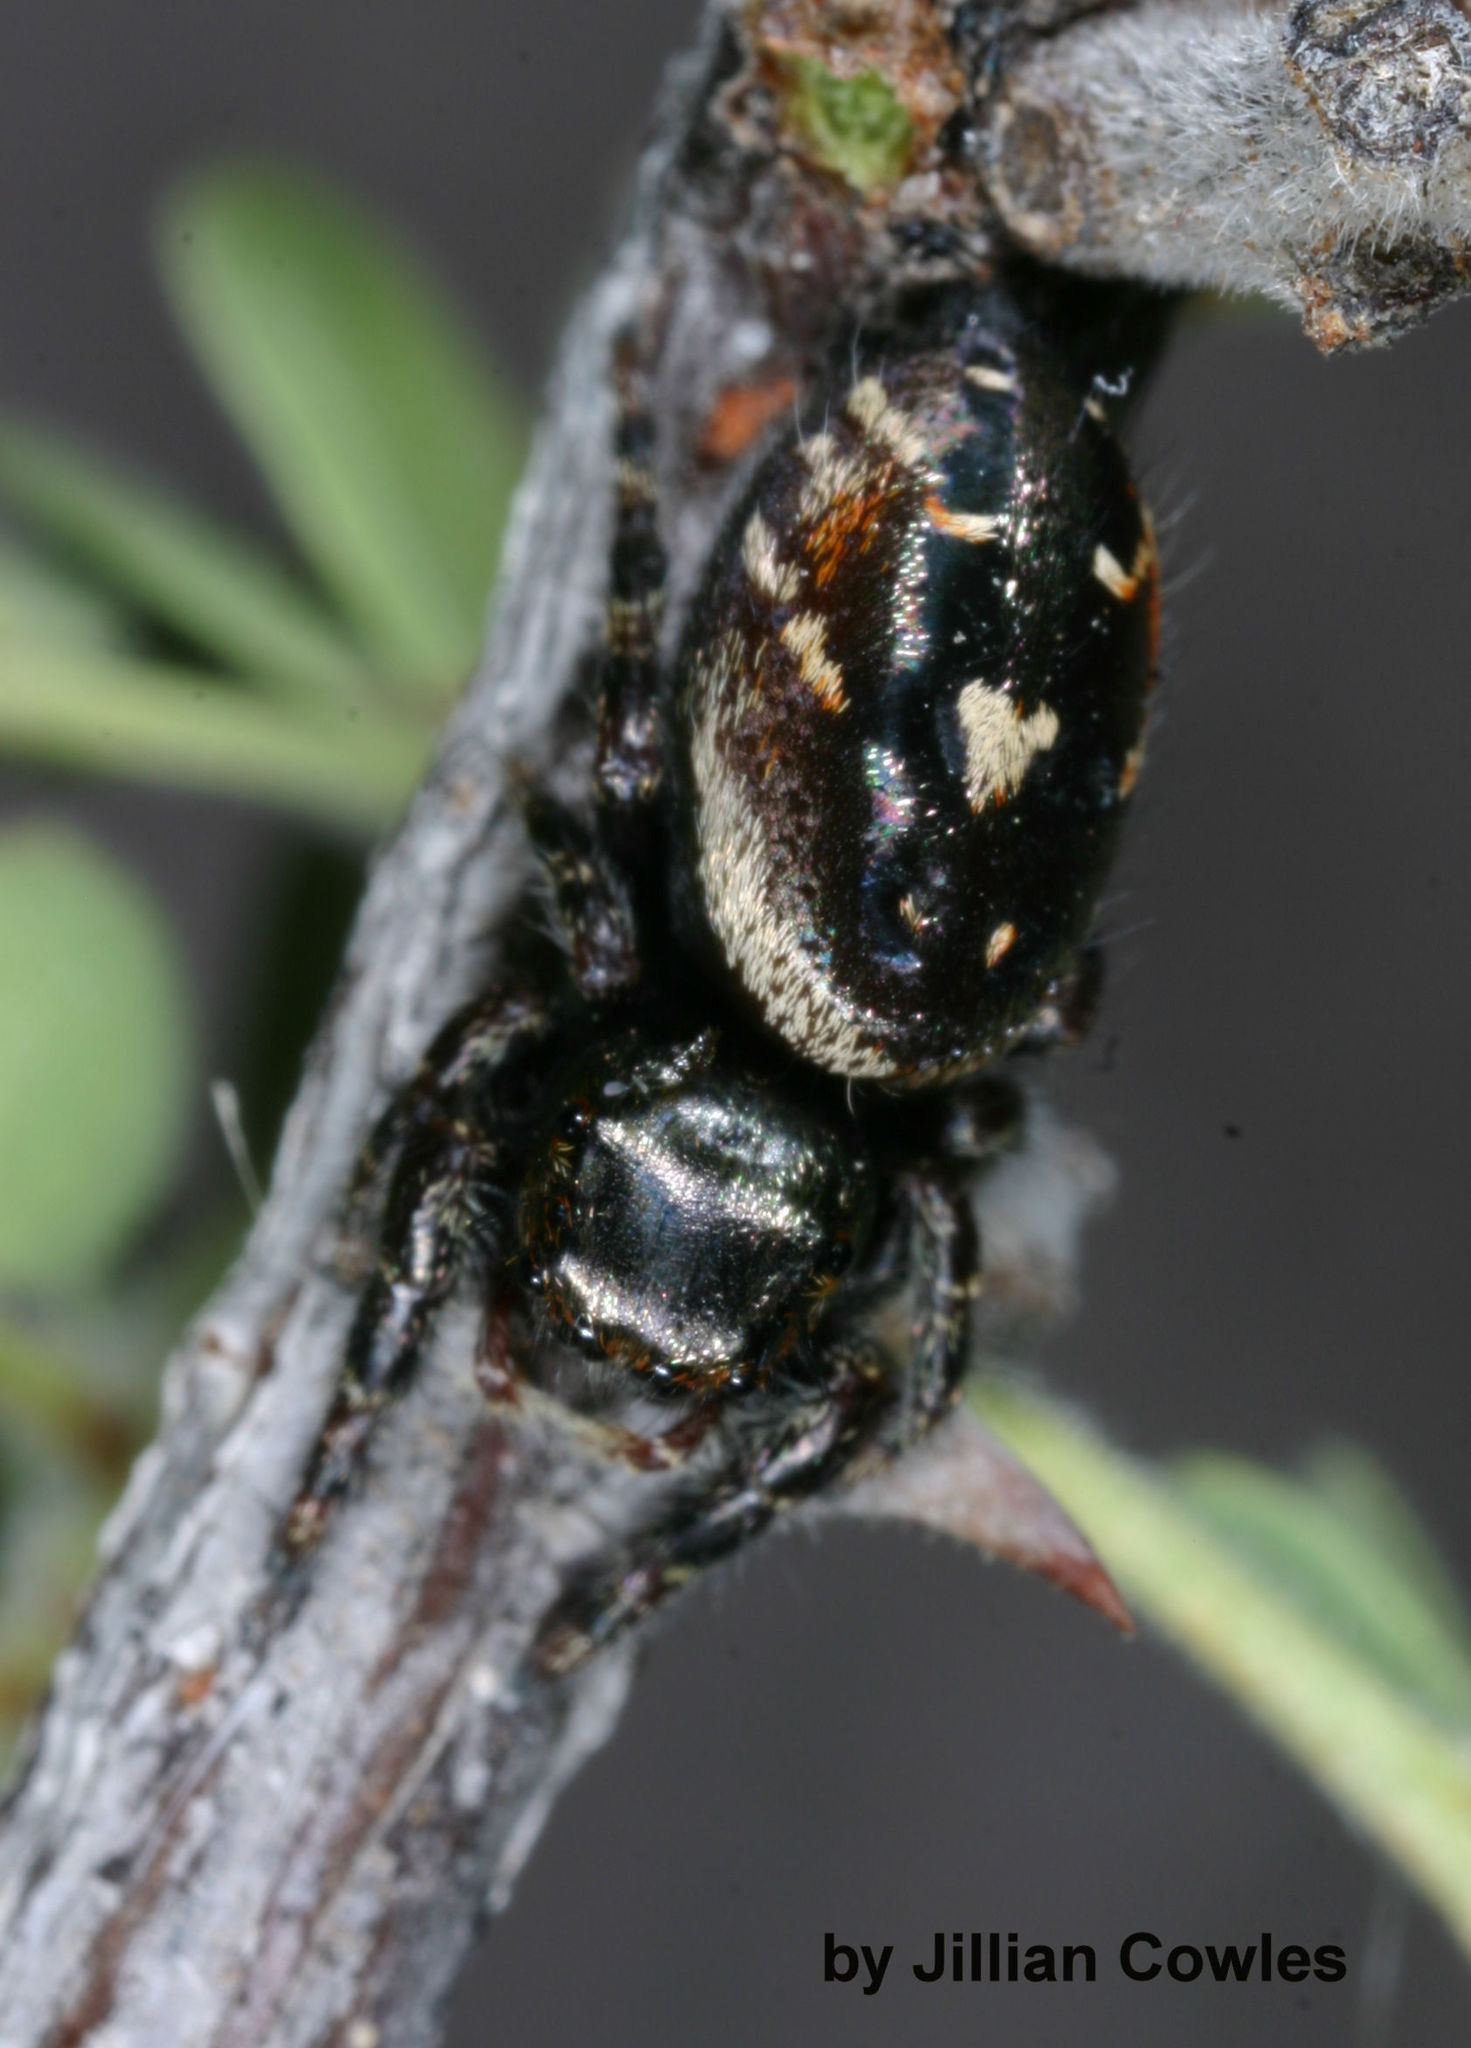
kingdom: Animalia
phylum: Arthropoda
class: Arachnida
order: Araneae
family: Salticidae
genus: Phidippus
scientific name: Phidippus californicus
